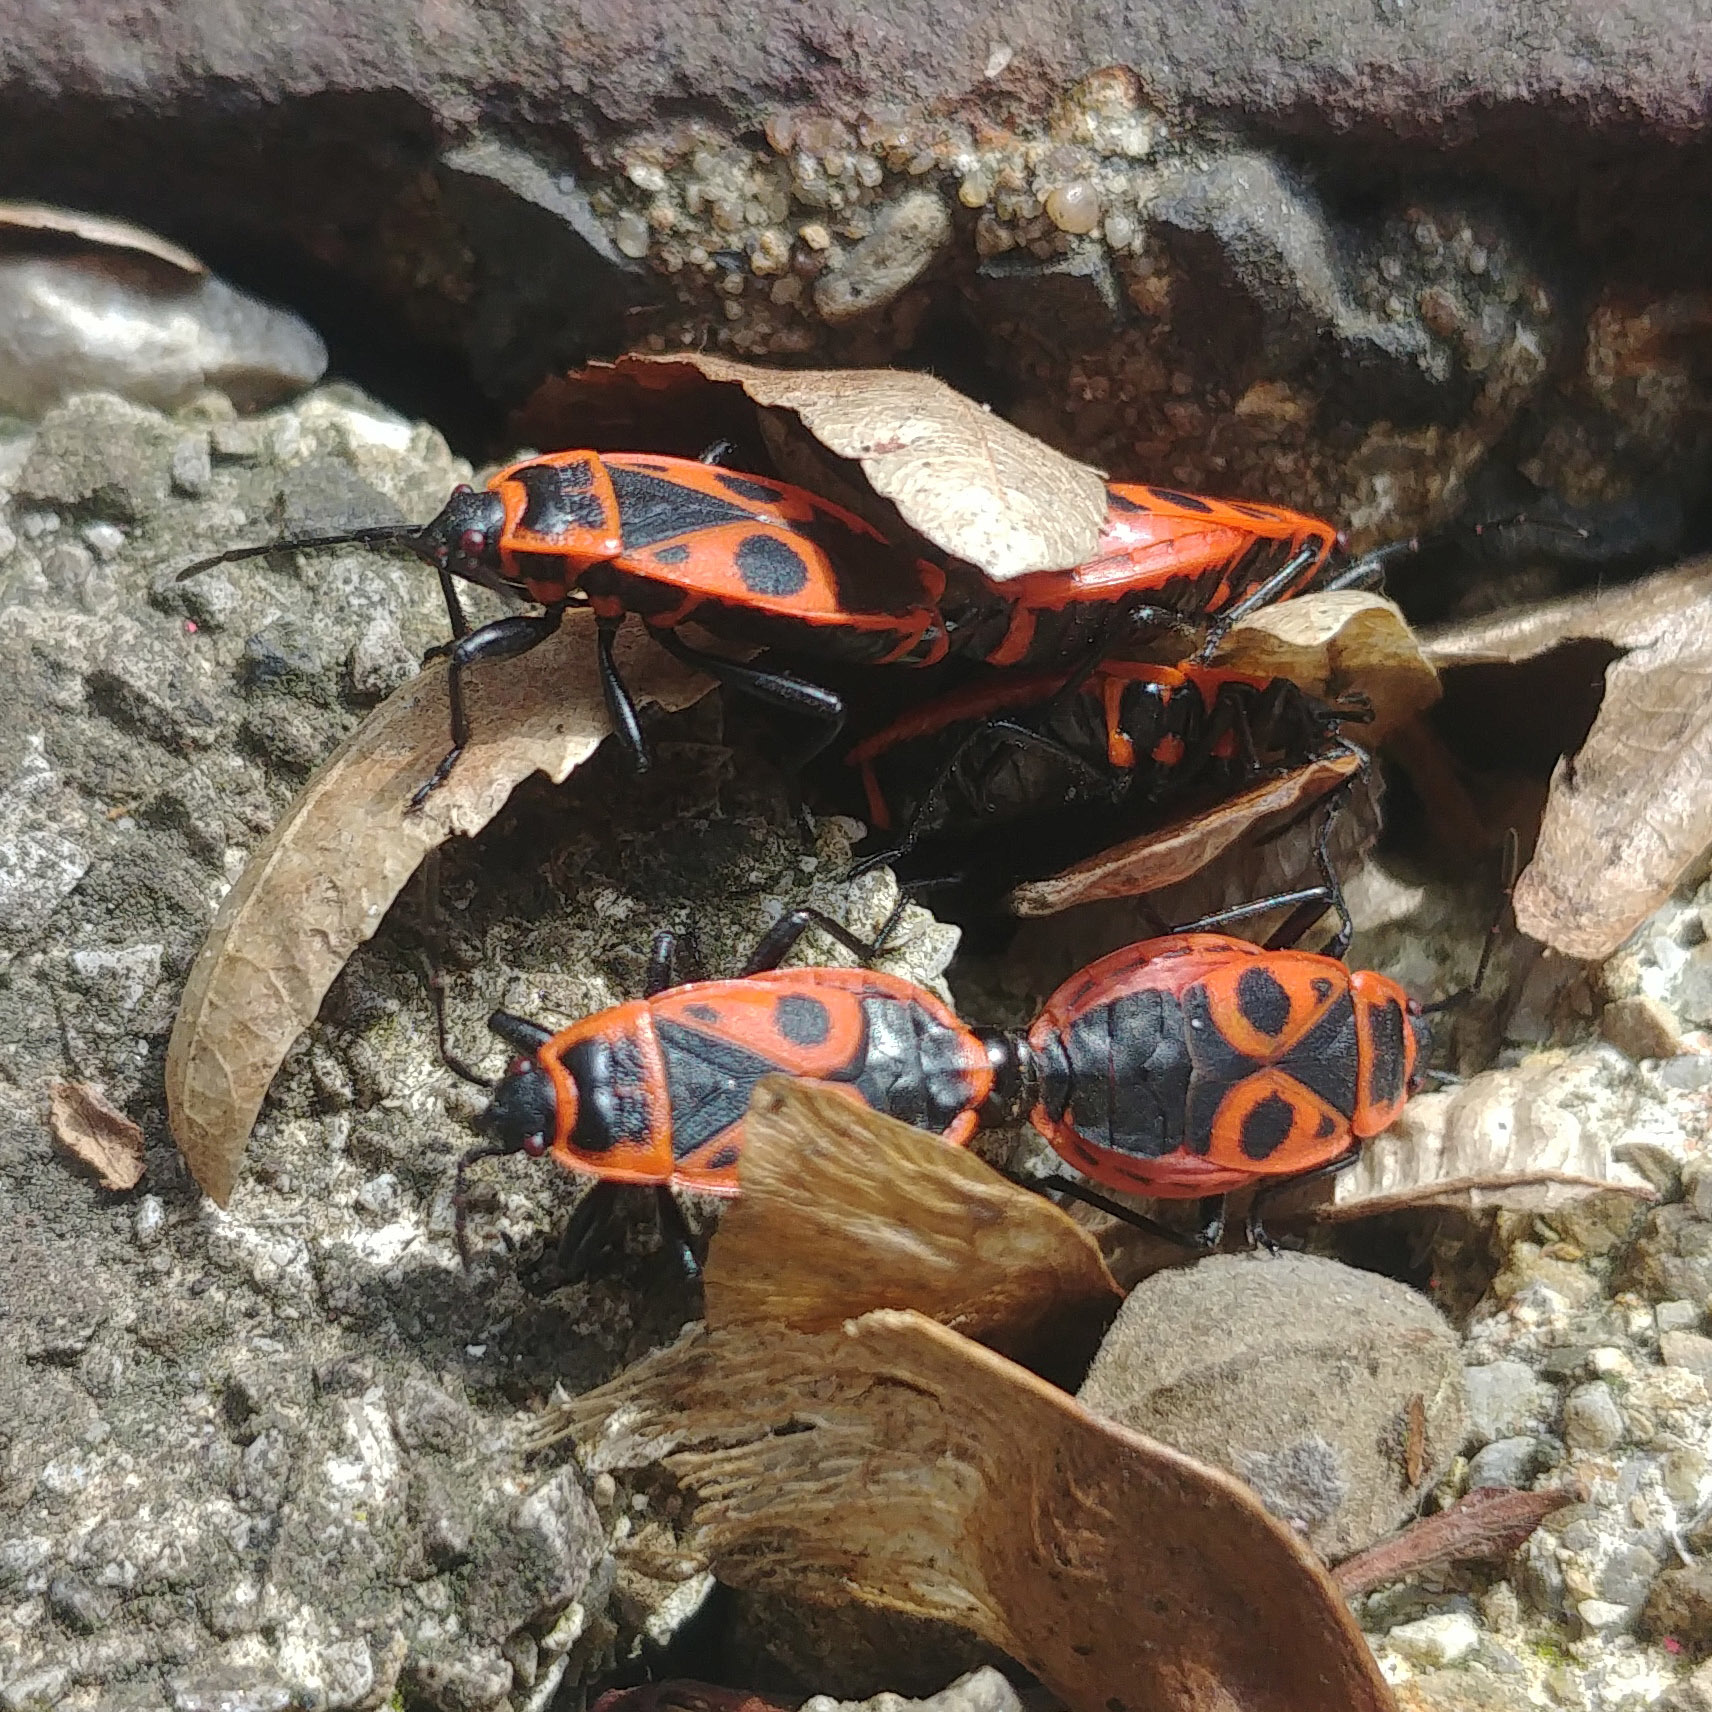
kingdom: Animalia
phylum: Arthropoda
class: Insecta
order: Hemiptera
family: Pyrrhocoridae
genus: Pyrrhocoris
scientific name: Pyrrhocoris apterus
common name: Firebug
